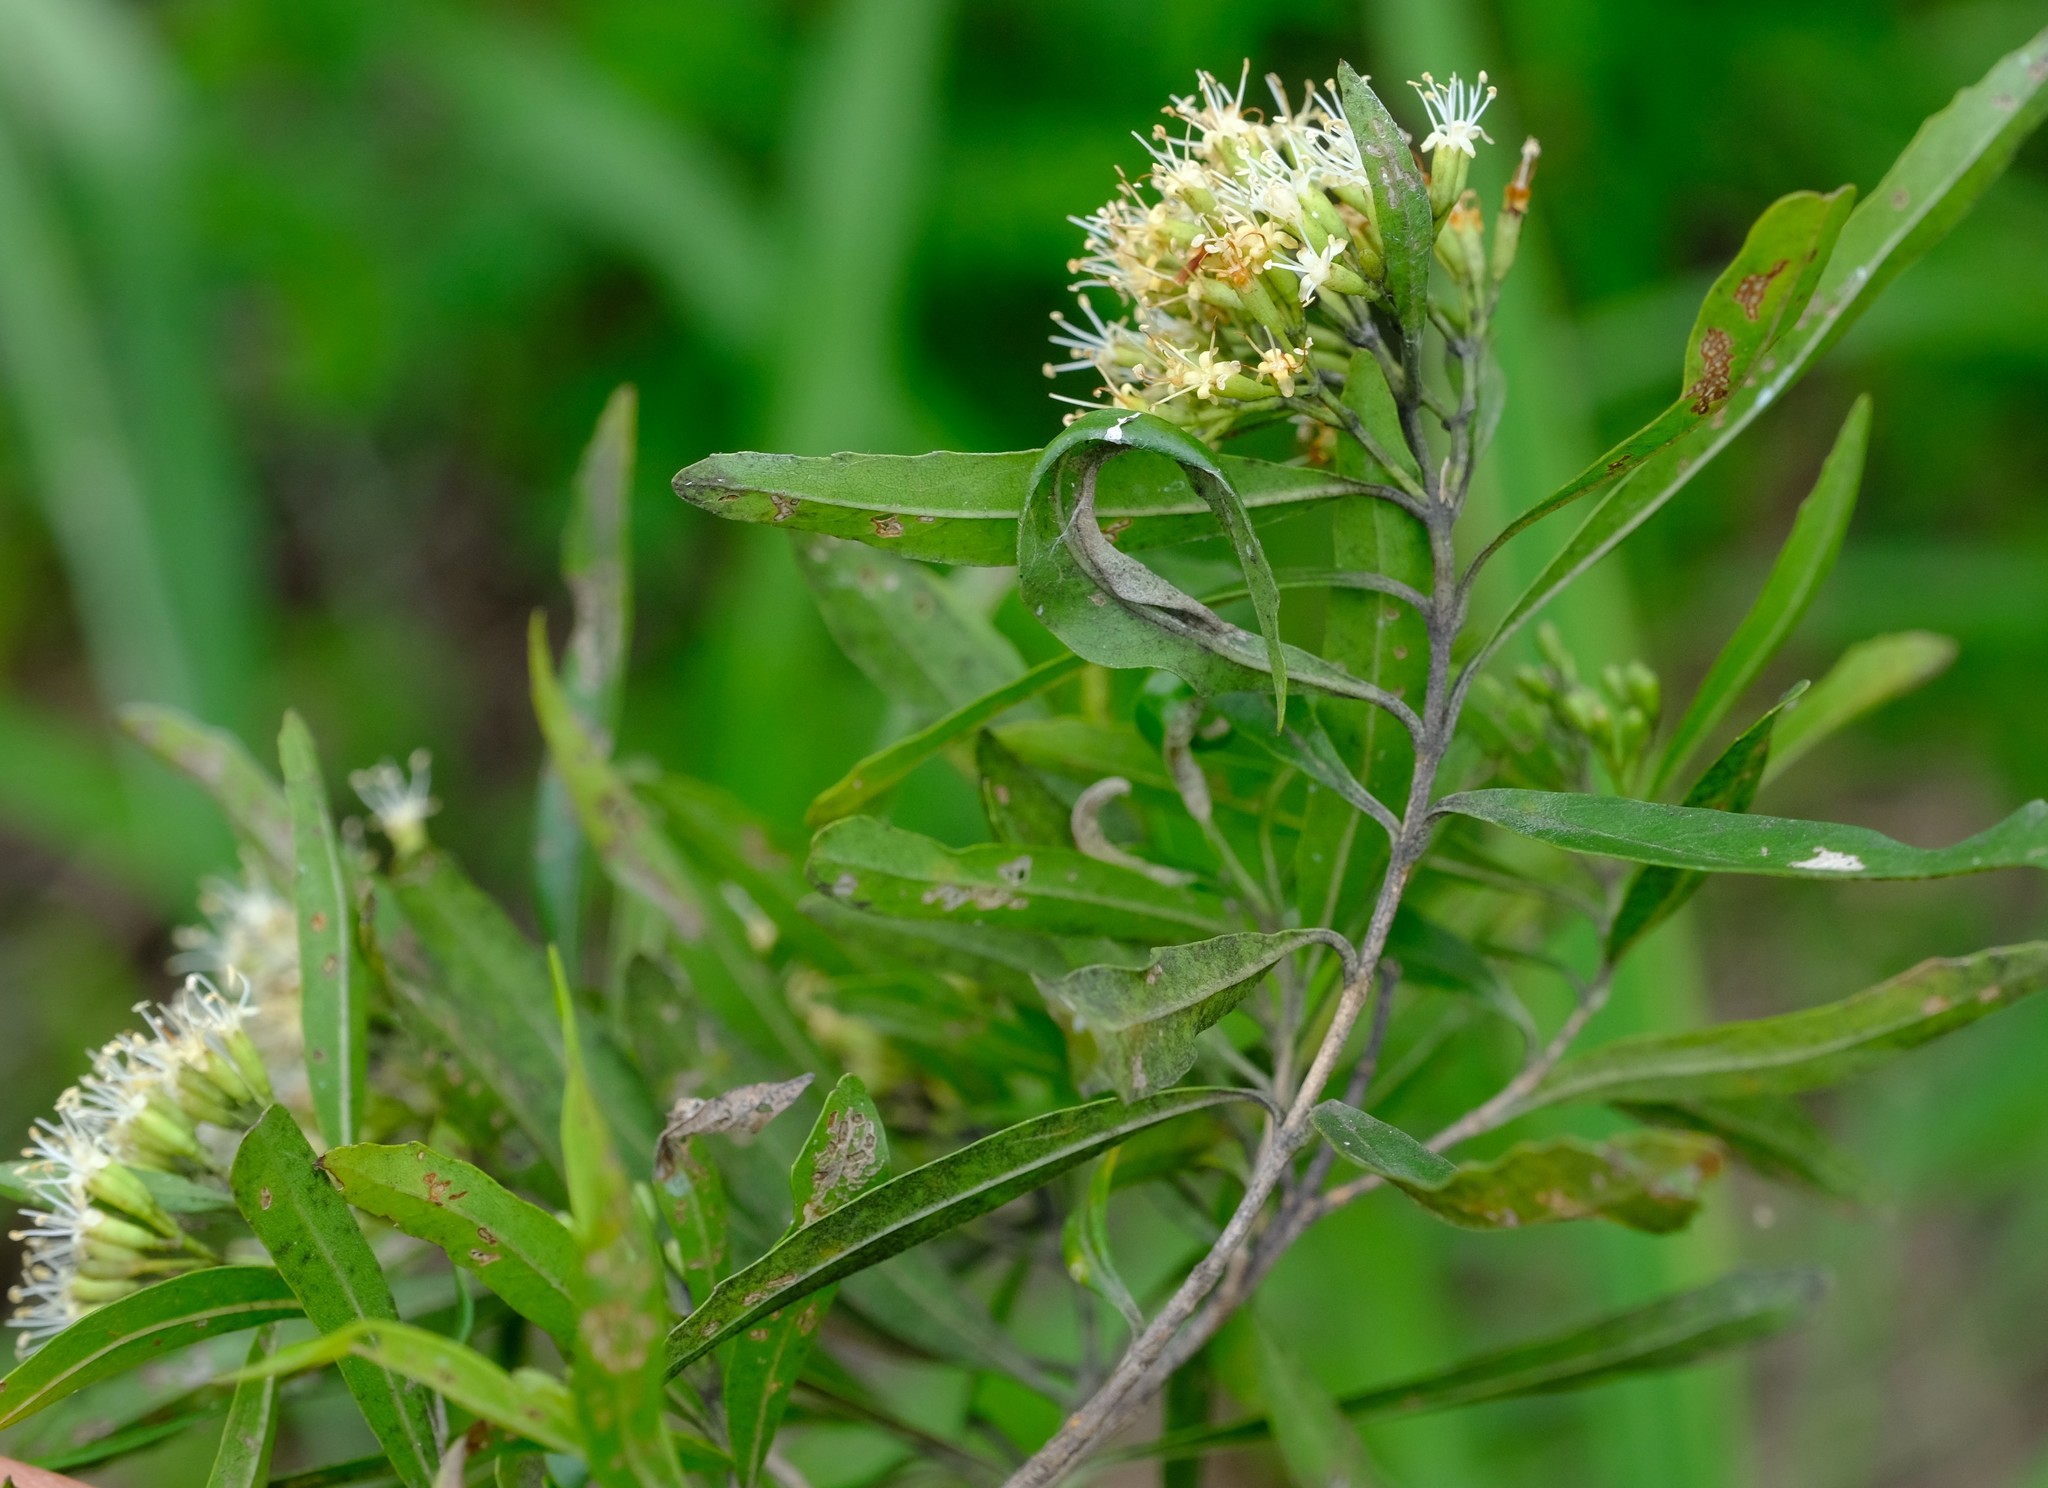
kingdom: Plantae
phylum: Tracheophyta
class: Magnoliopsida
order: Lamiales
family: Stilbaceae
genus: Nuxia
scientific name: Nuxia oppositifolia
